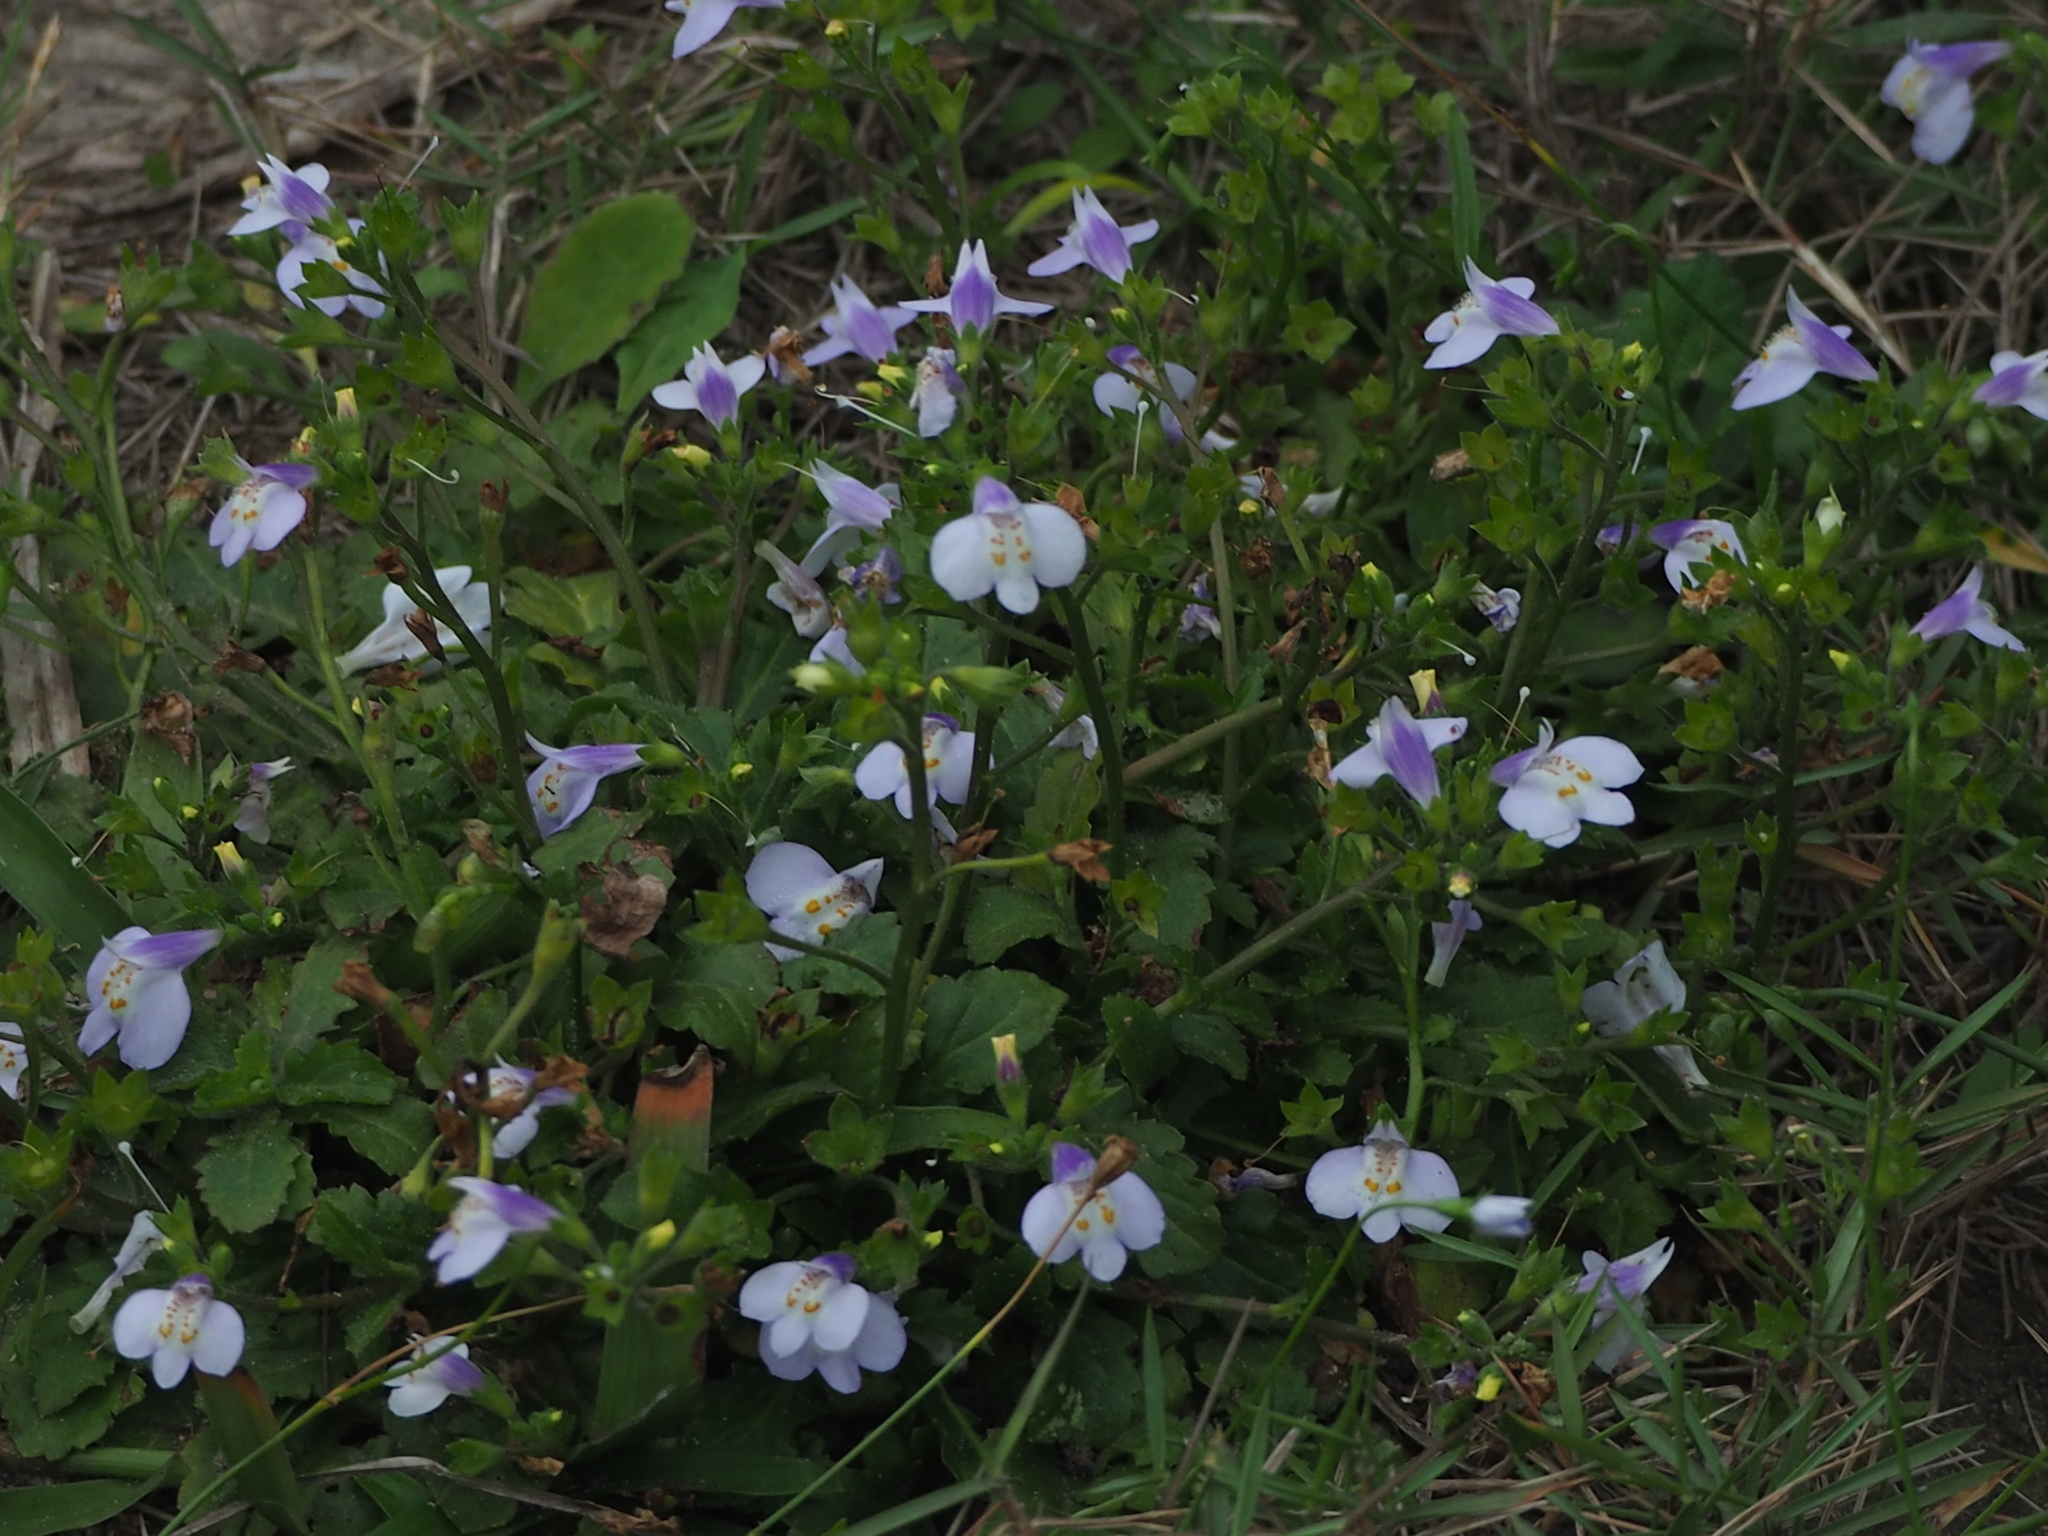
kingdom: Plantae
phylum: Tracheophyta
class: Magnoliopsida
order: Lamiales
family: Mazaceae
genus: Mazus
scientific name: Mazus fauriei
